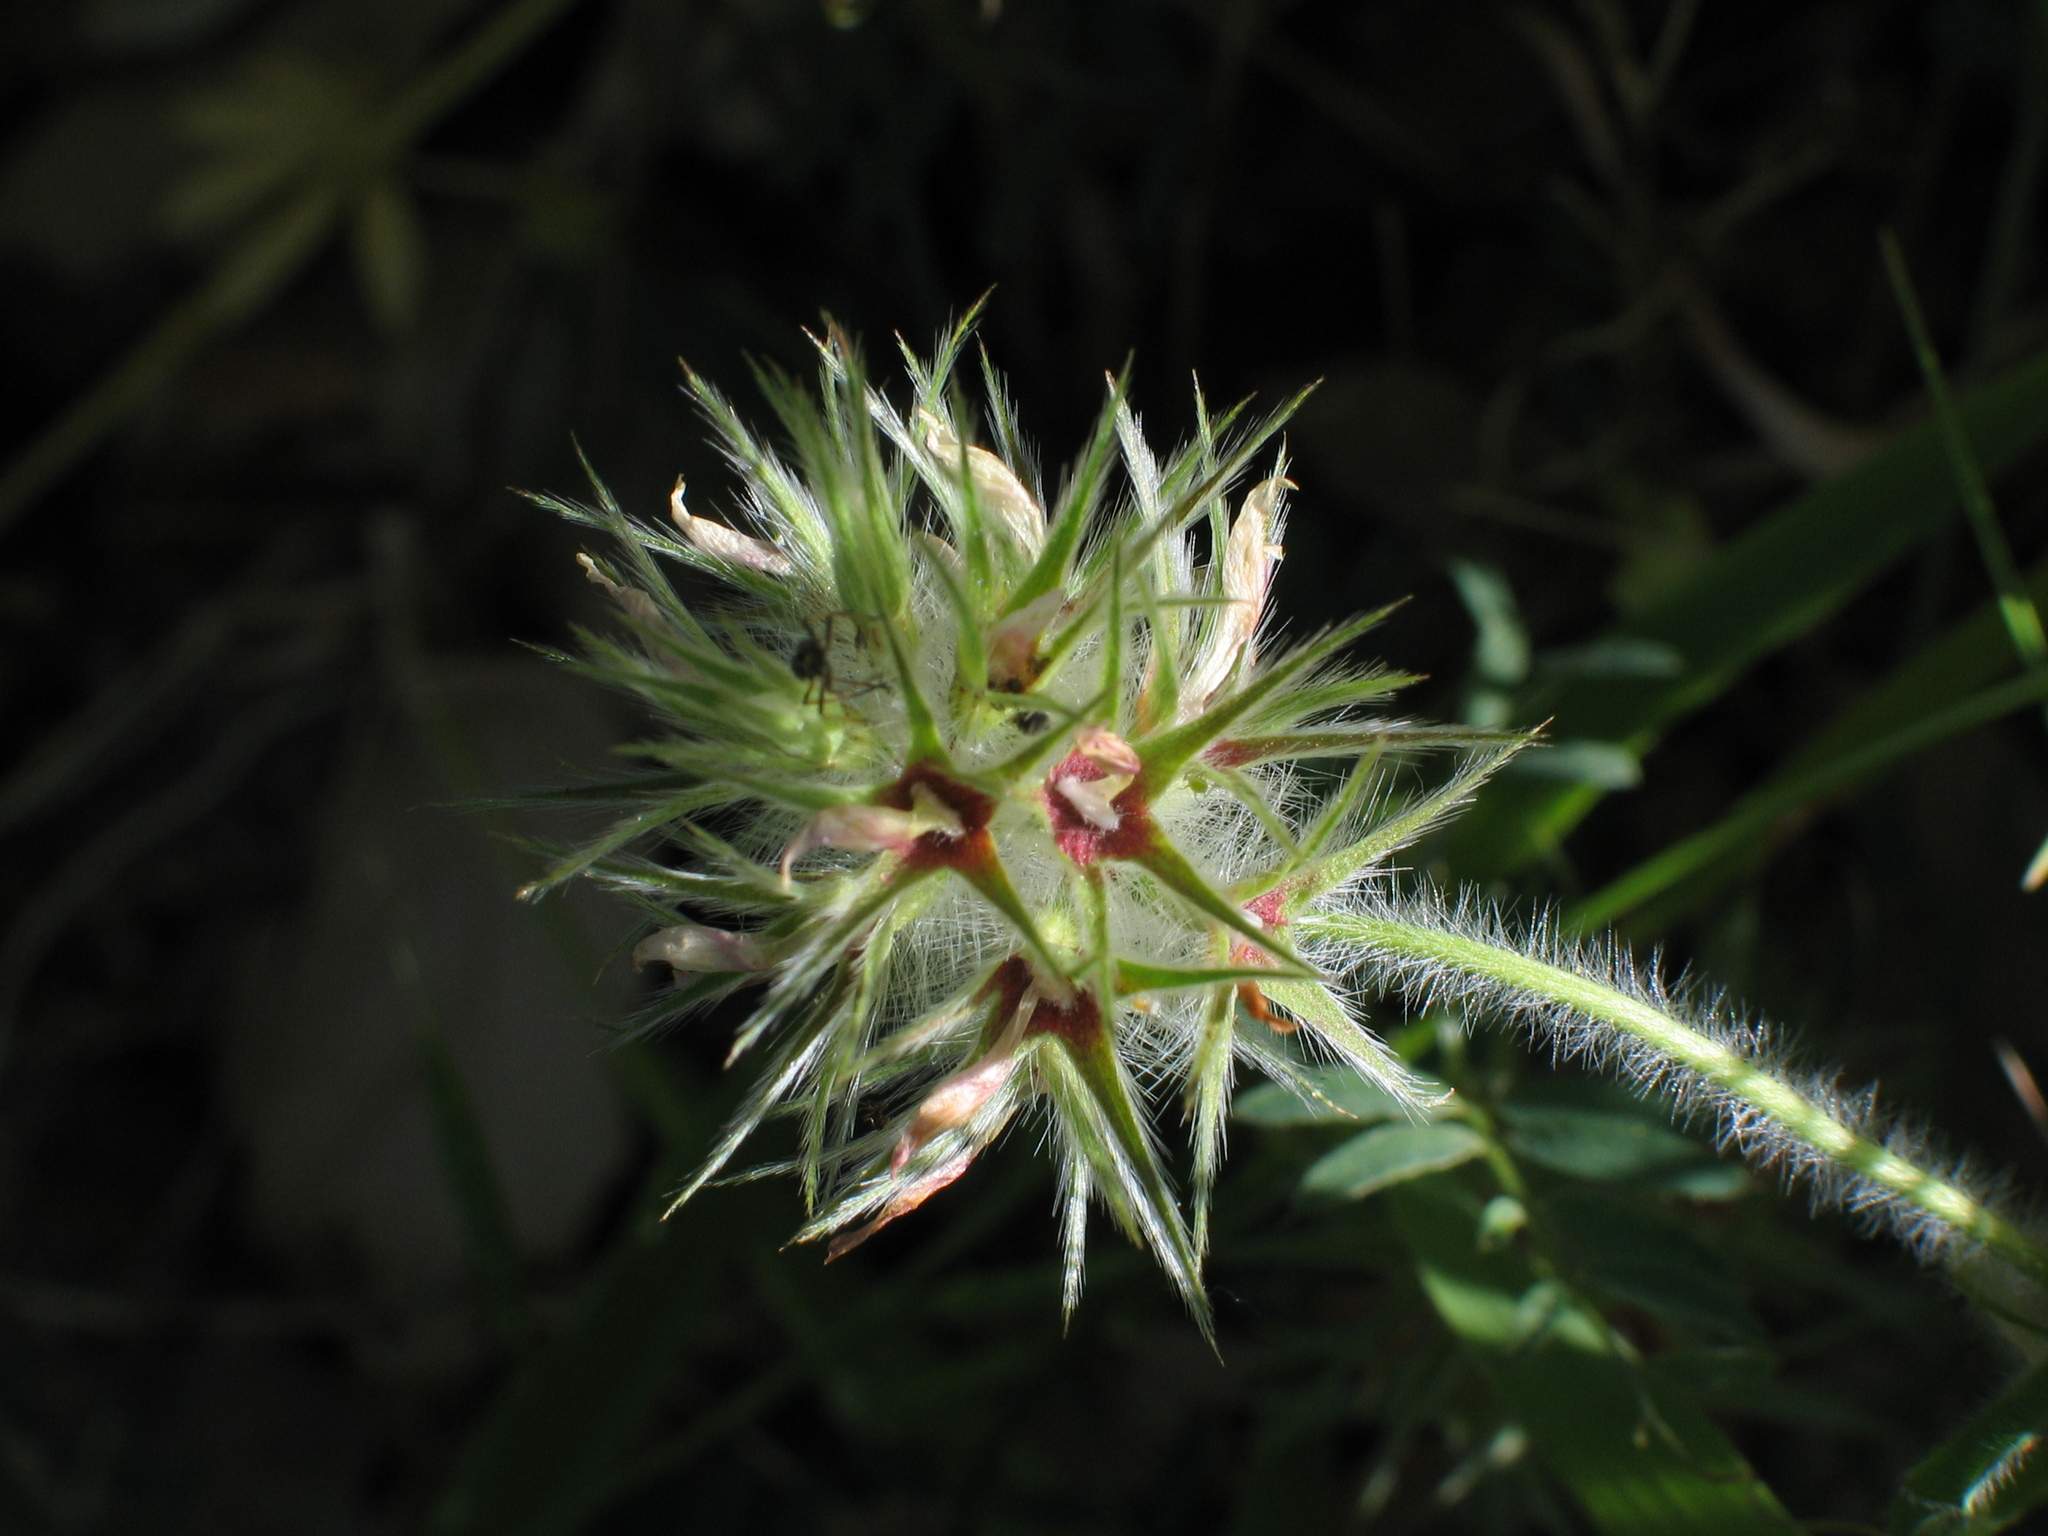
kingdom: Plantae
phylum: Tracheophyta
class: Magnoliopsida
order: Fabales
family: Fabaceae
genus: Trifolium
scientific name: Trifolium stellatum
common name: Starry clover
